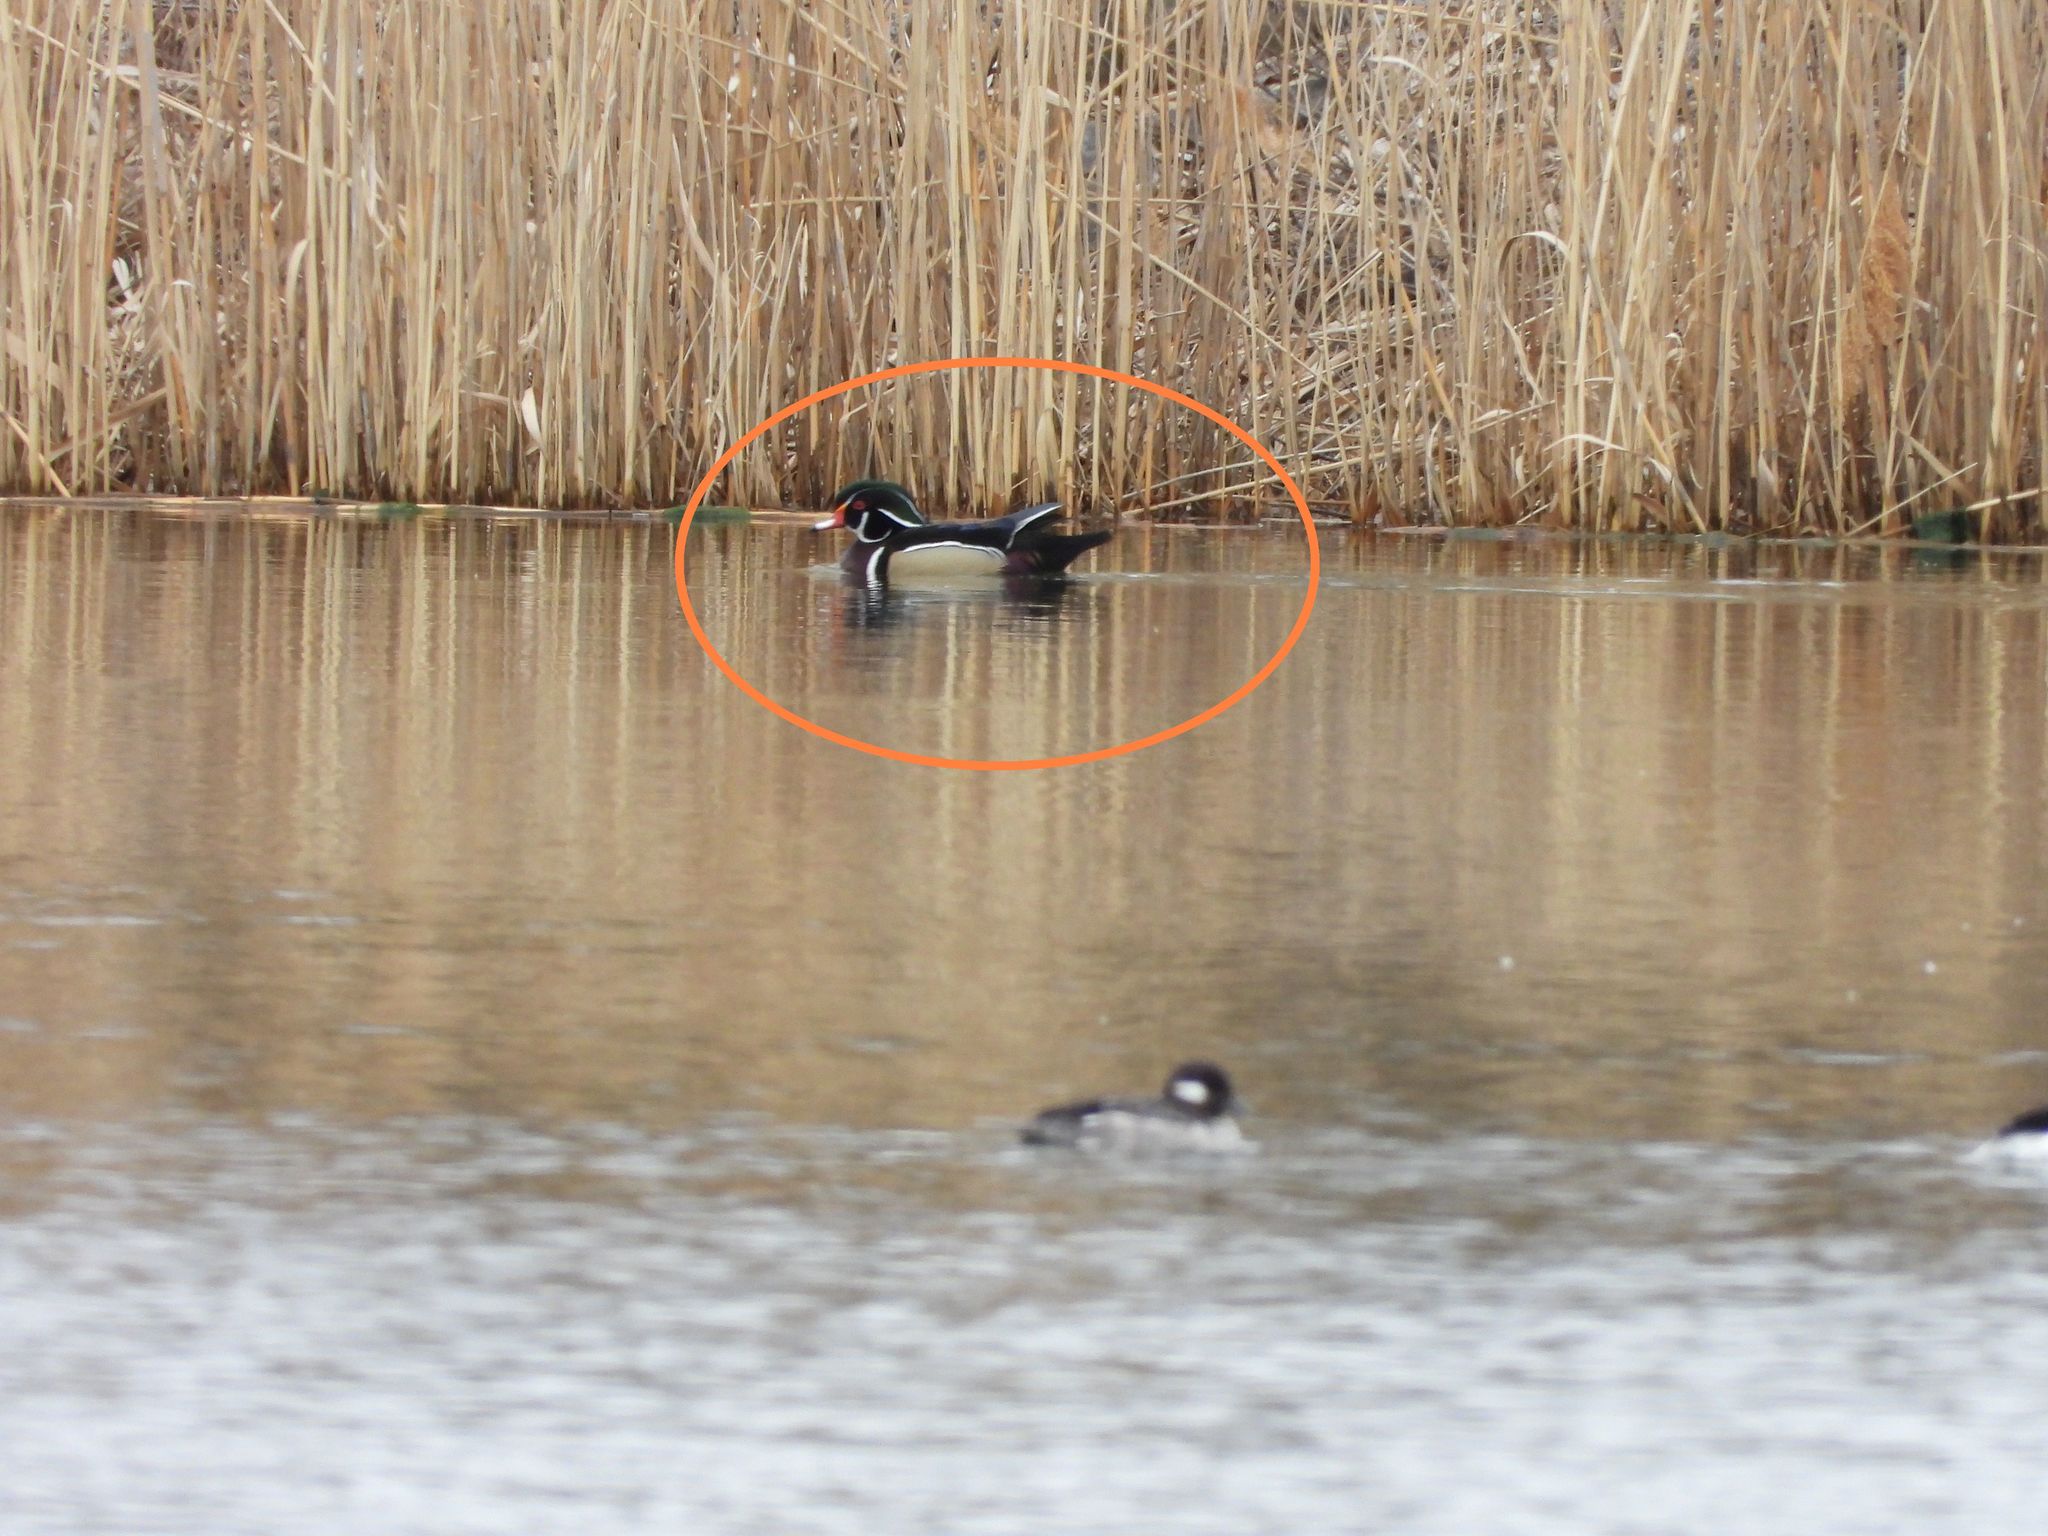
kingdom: Animalia
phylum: Chordata
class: Aves
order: Anseriformes
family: Anatidae
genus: Aix
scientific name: Aix sponsa
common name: Wood duck
